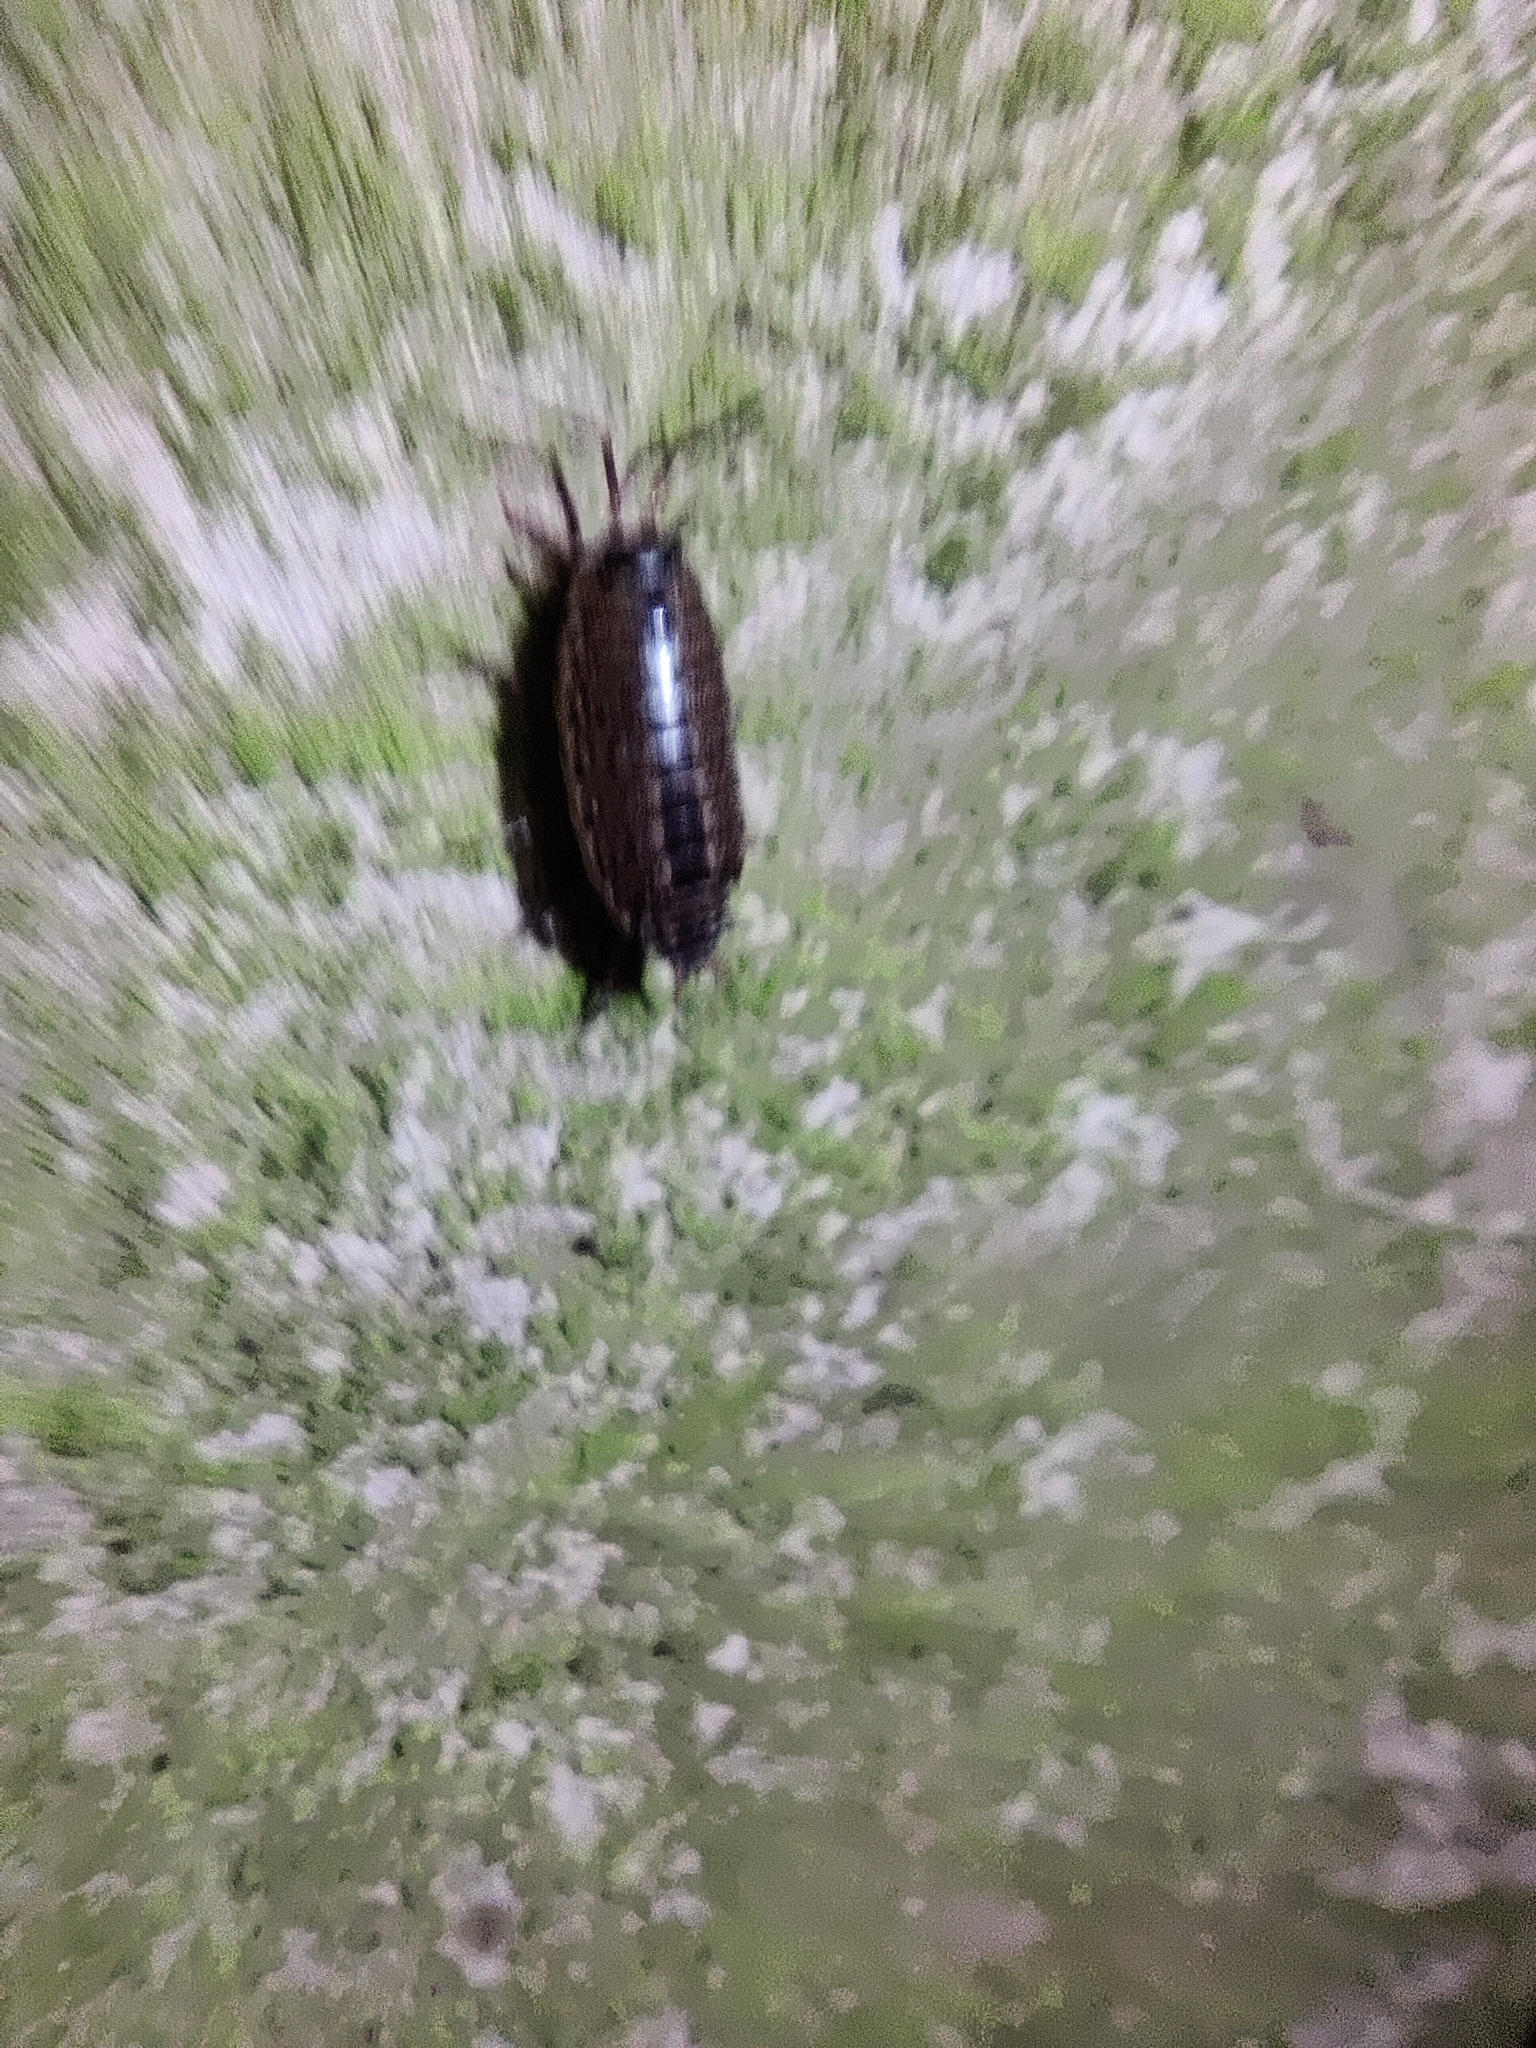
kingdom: Animalia
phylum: Arthropoda
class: Malacostraca
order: Isopoda
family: Philosciidae
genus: Philoscia
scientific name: Philoscia muscorum
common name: Common striped woodlouse
